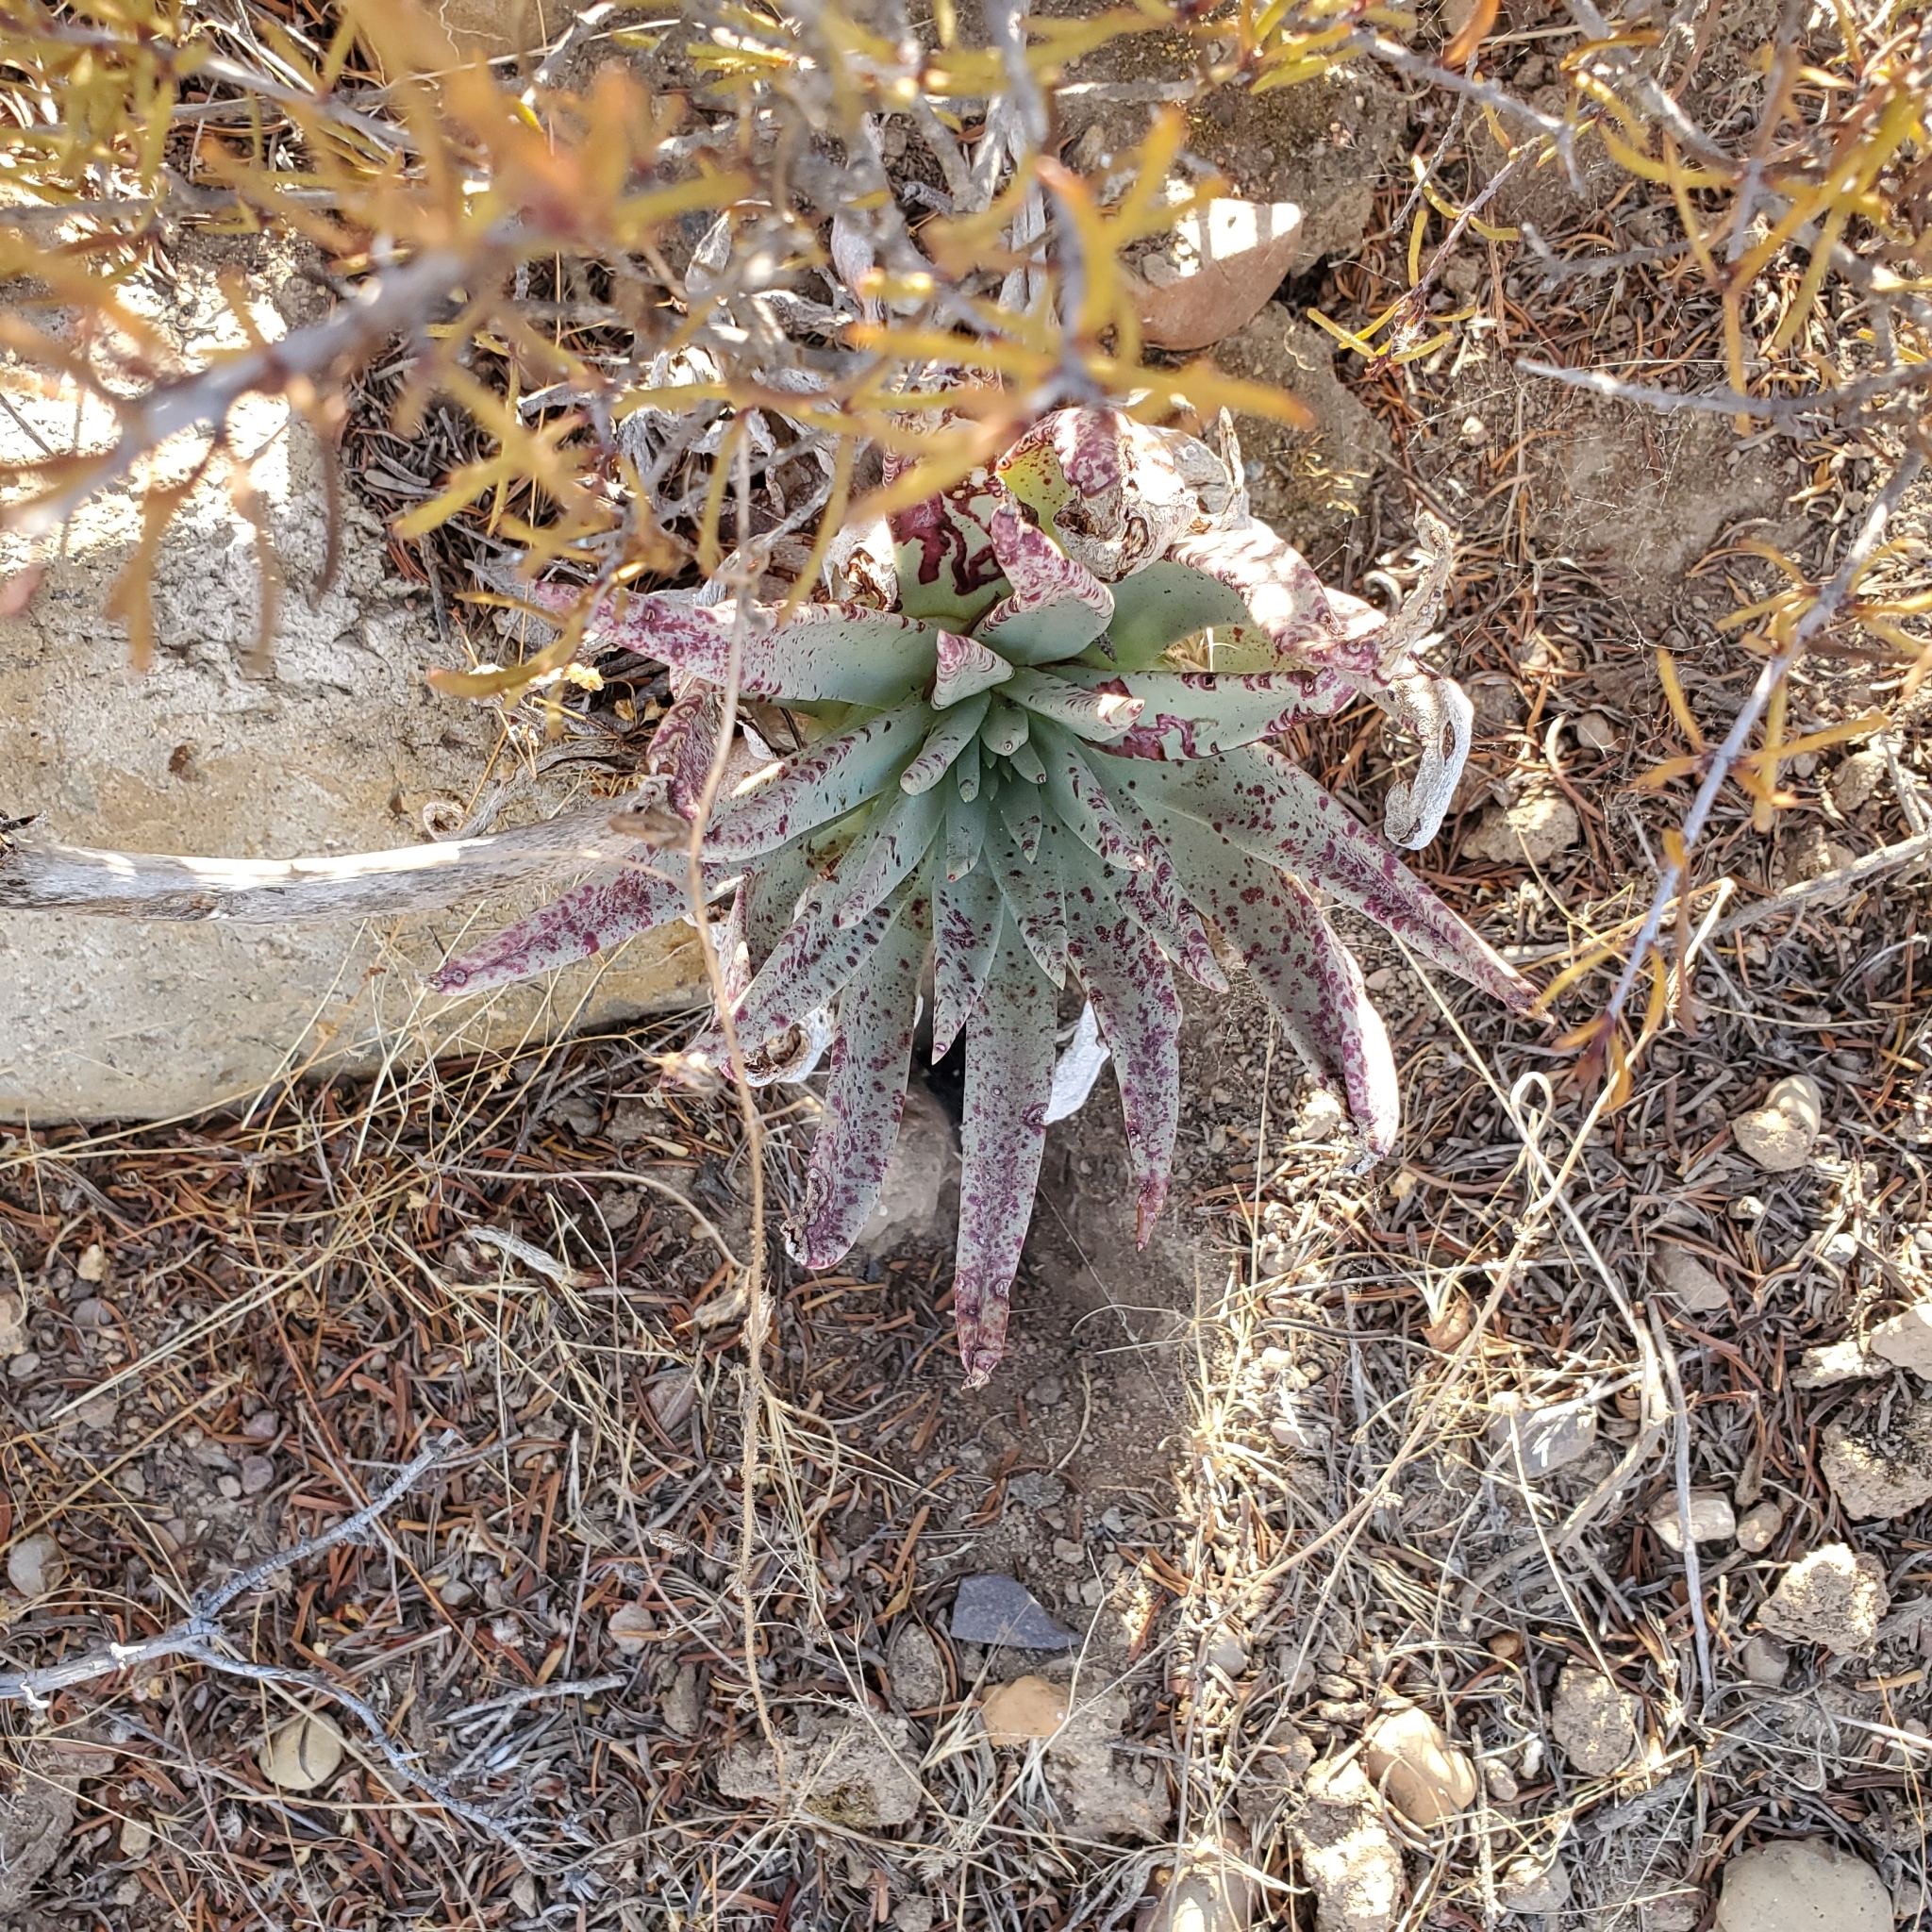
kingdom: Plantae
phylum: Tracheophyta
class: Magnoliopsida
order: Saxifragales
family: Crassulaceae
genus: Dudleya
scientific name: Dudleya ingens
